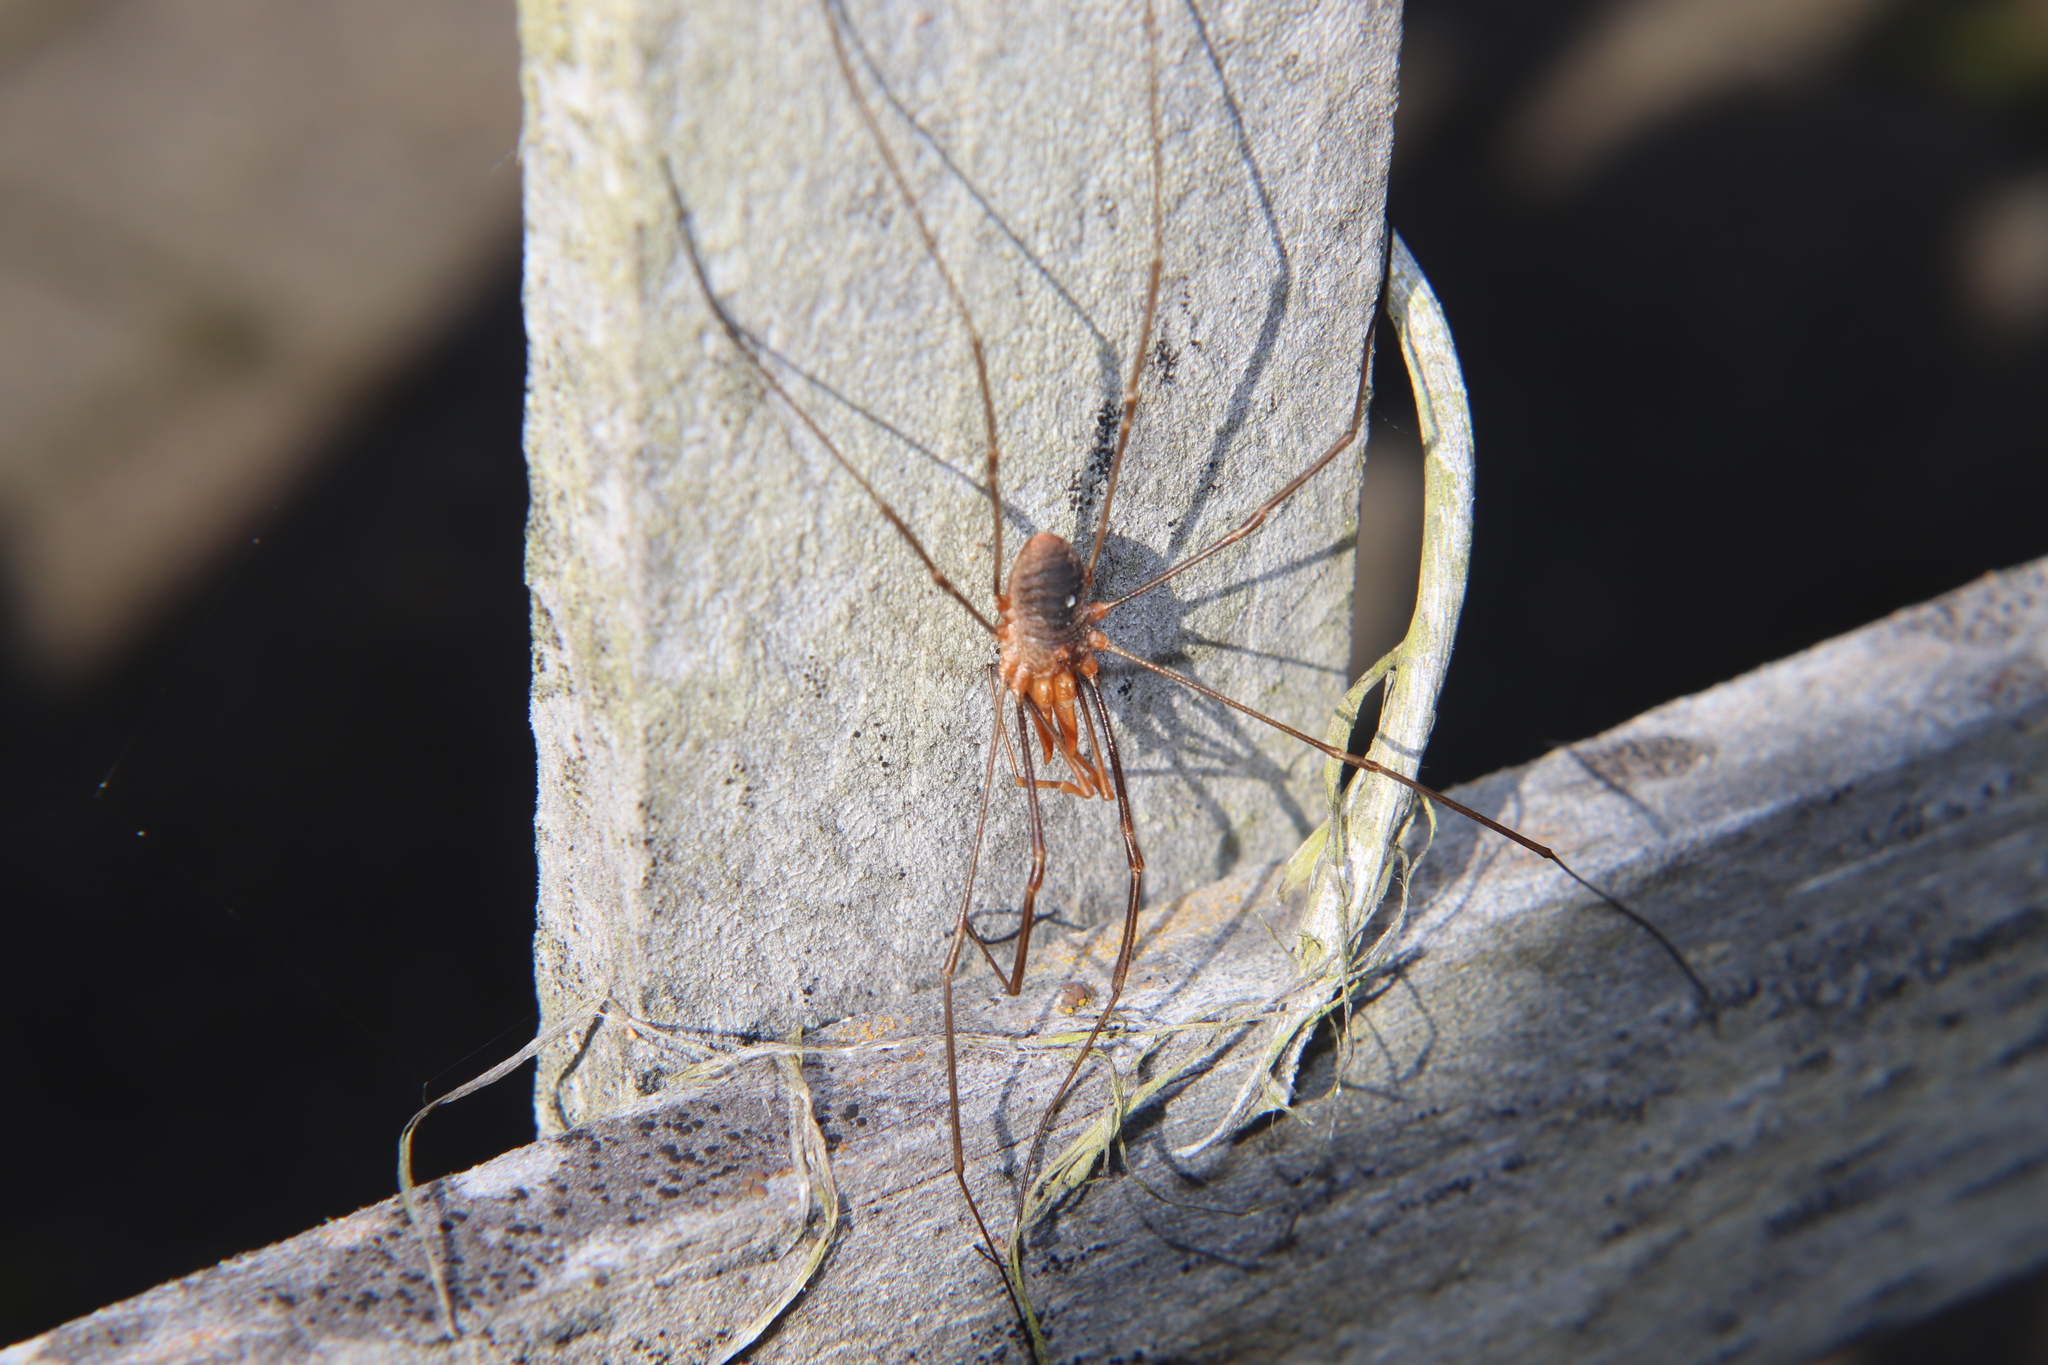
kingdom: Animalia
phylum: Arthropoda
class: Arachnida
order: Opiliones
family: Phalangiidae
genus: Phalangium
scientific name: Phalangium opilio
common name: Daddy longleg
